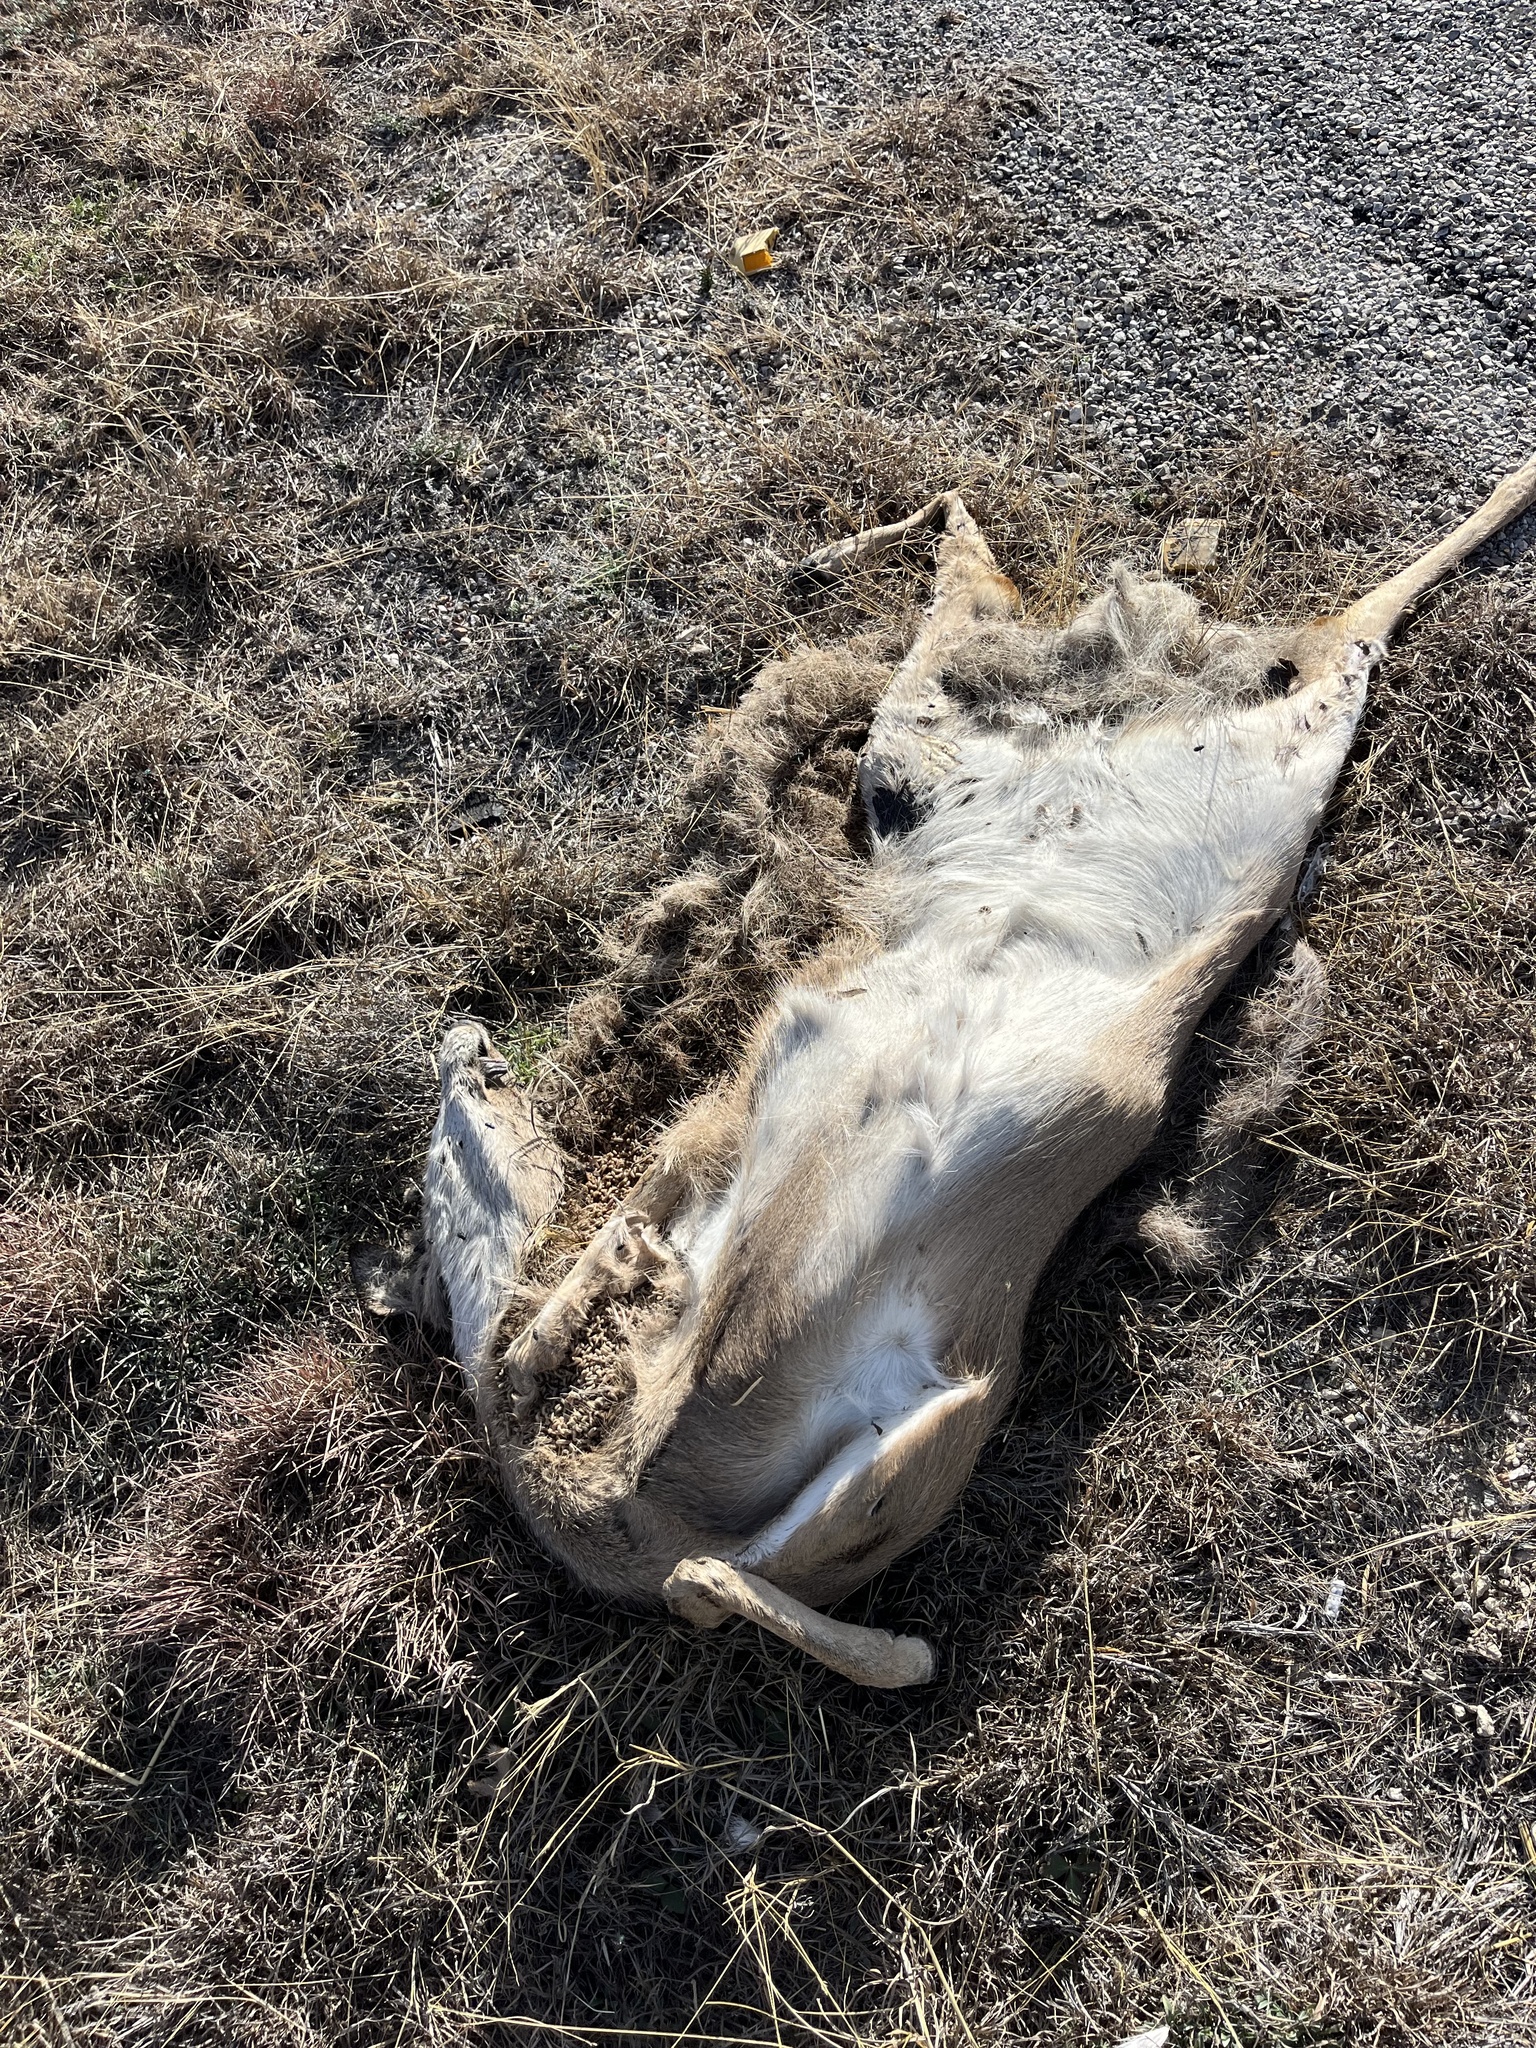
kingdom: Animalia
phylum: Chordata
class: Mammalia
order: Artiodactyla
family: Cervidae
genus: Odocoileus
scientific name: Odocoileus virginianus
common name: White-tailed deer
